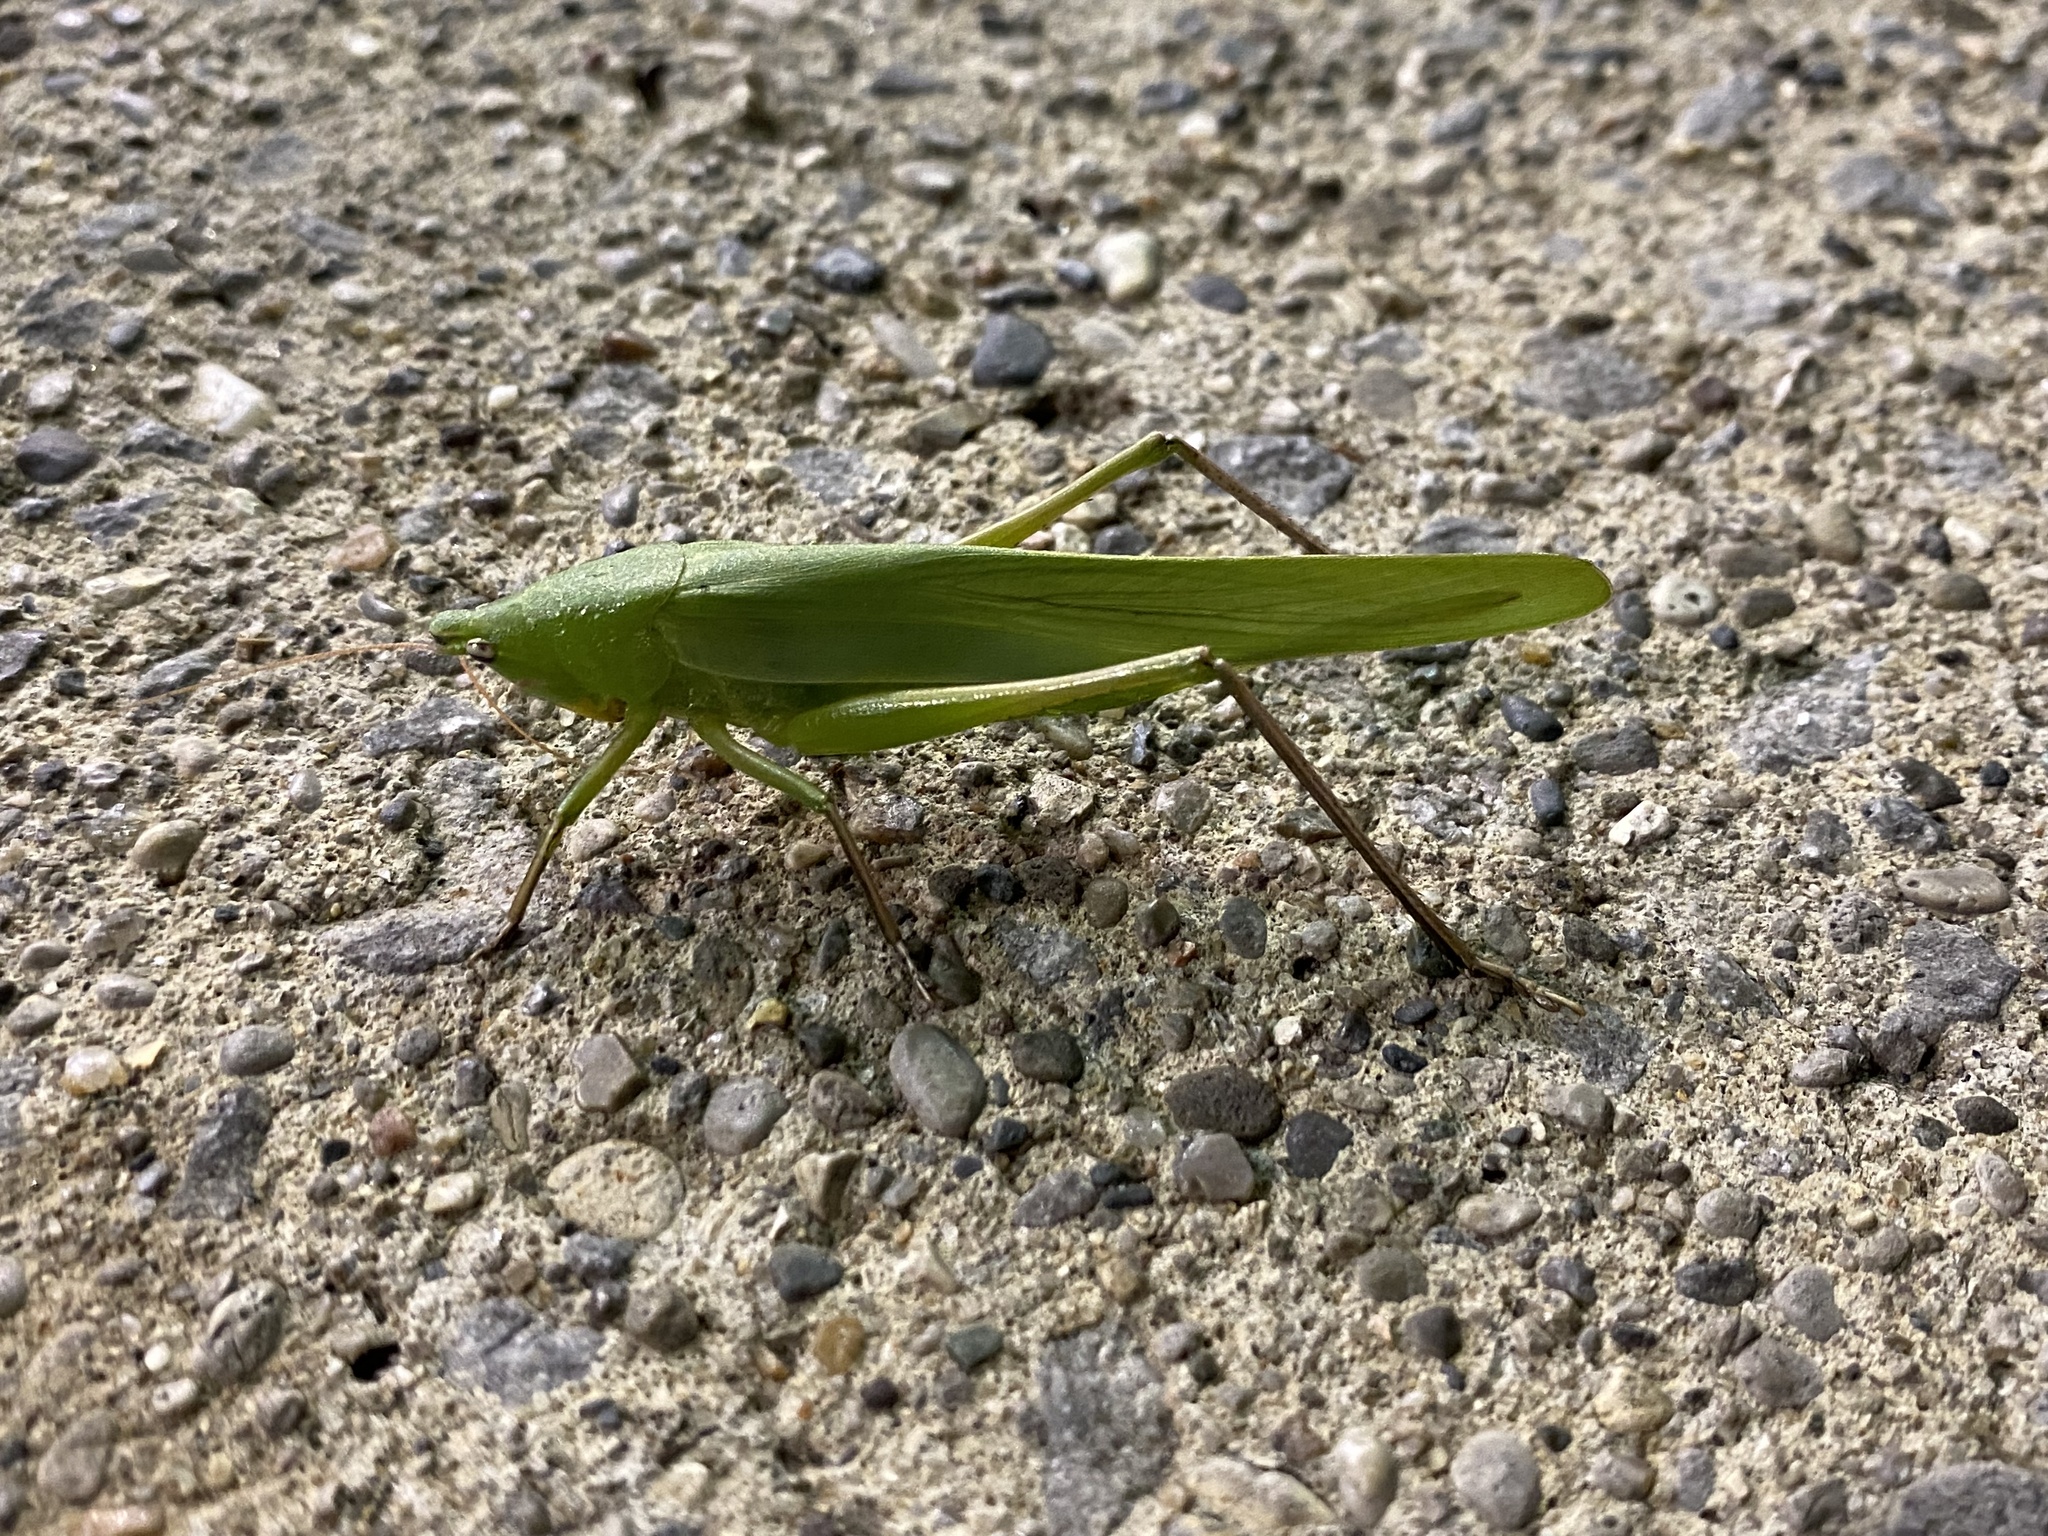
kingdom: Animalia
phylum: Arthropoda
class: Insecta
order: Orthoptera
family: Tettigoniidae
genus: Neoconocephalus
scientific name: Neoconocephalus triops
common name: Broad-tipped conehead
